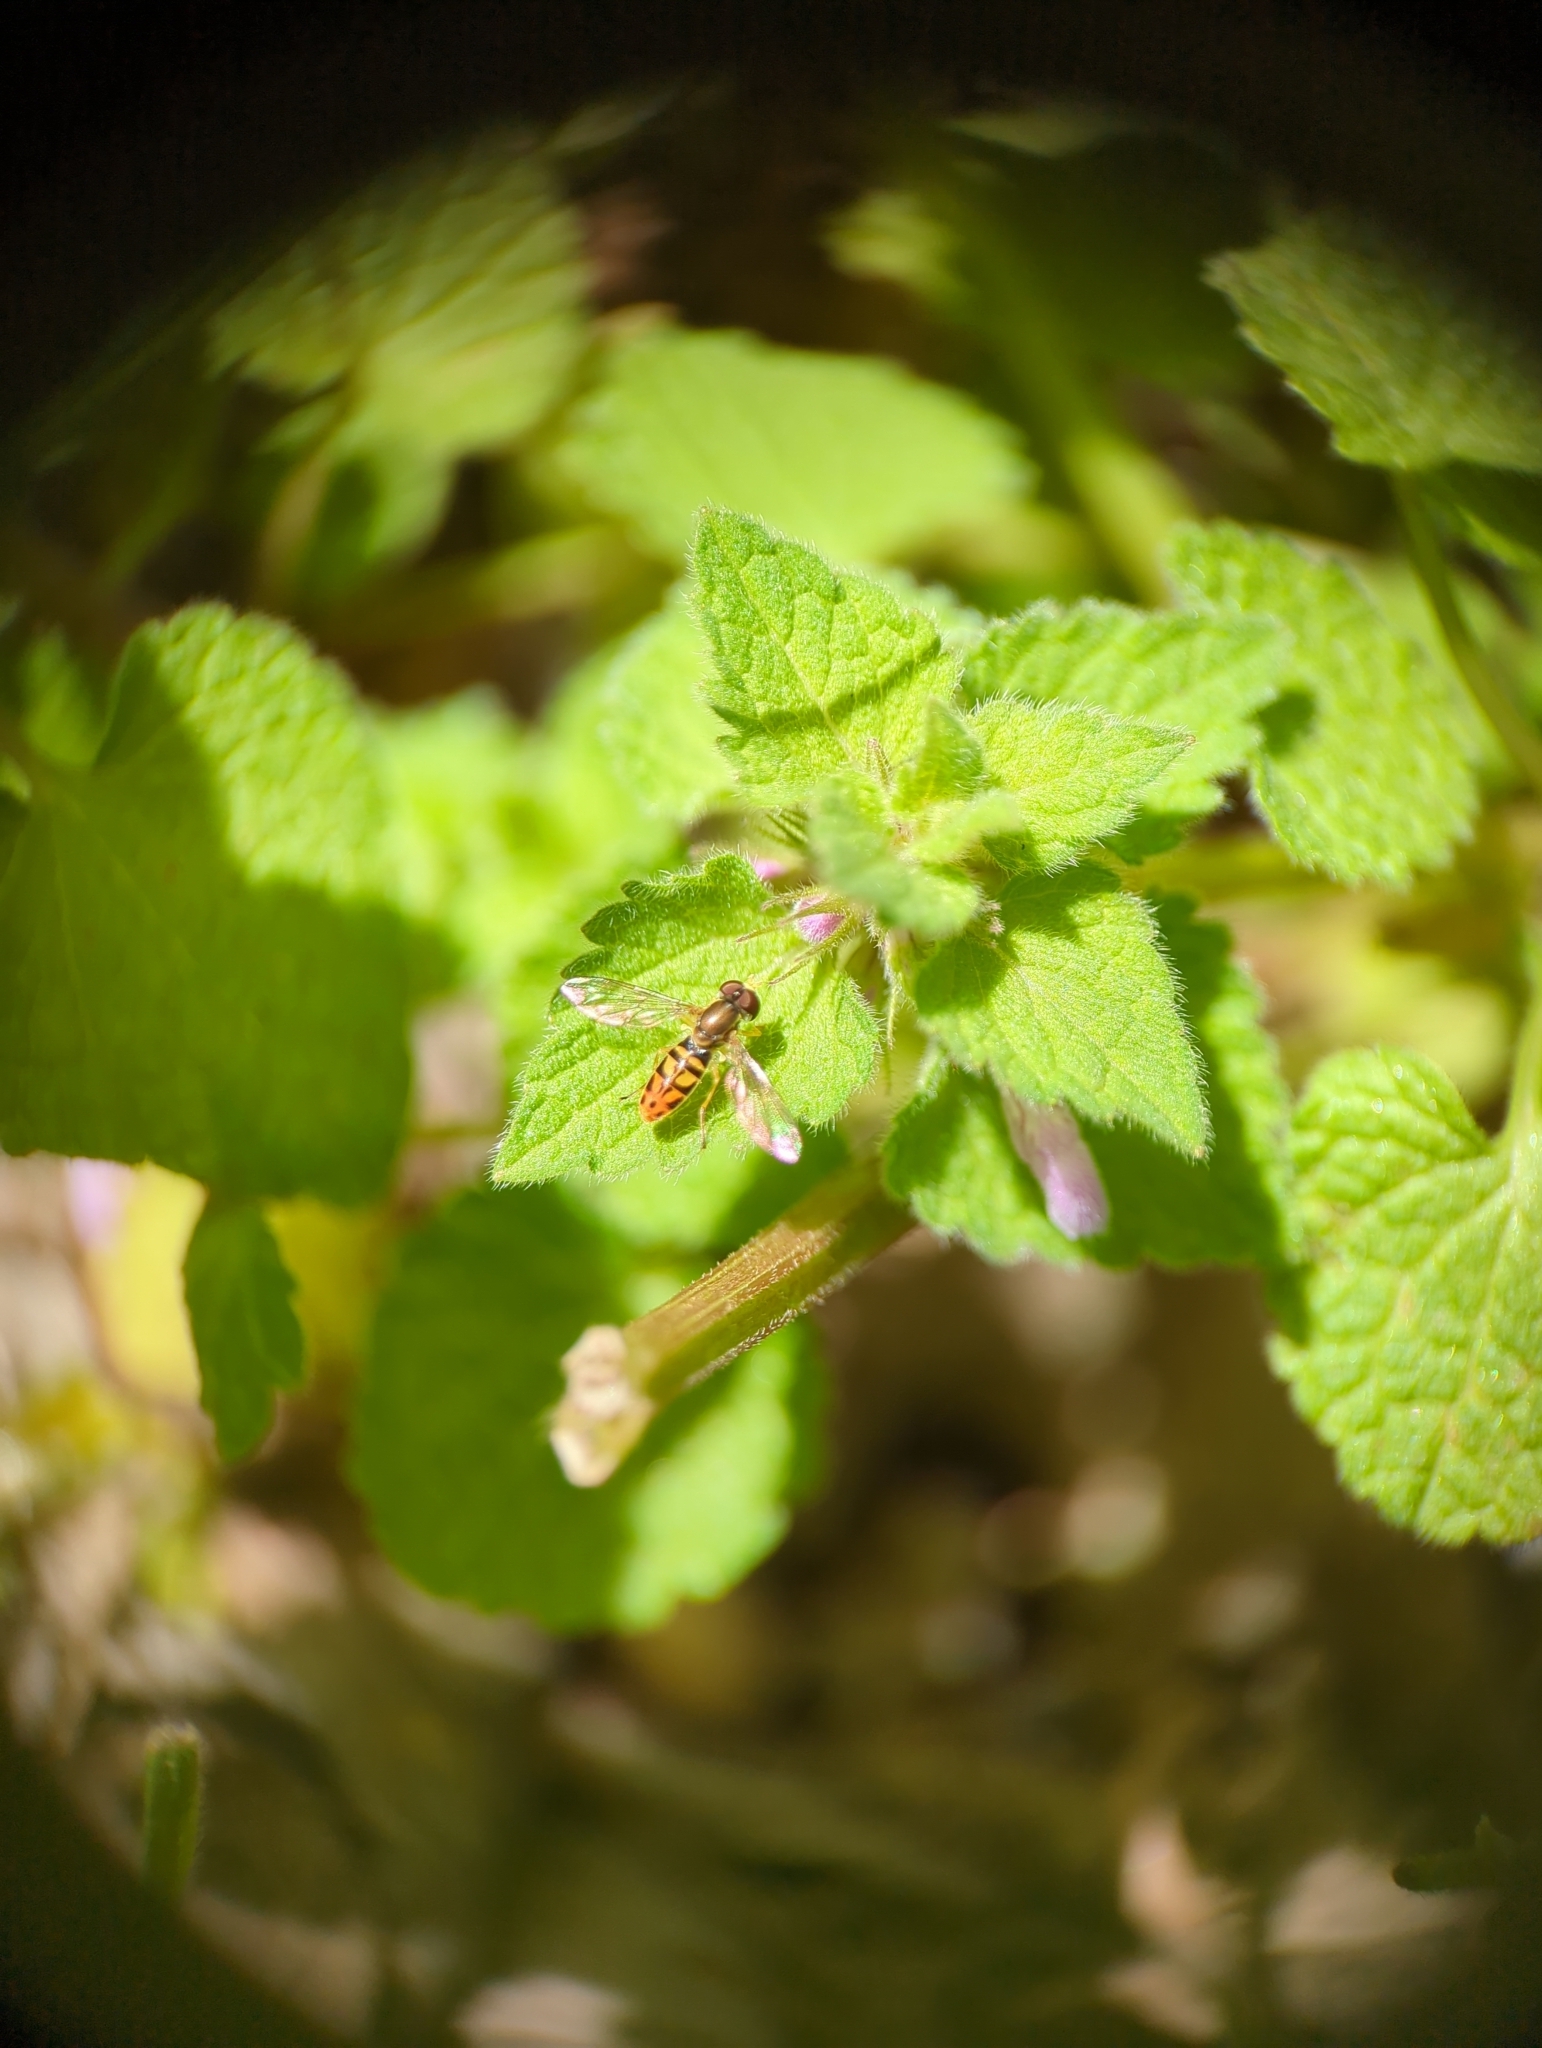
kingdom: Animalia
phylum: Arthropoda
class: Insecta
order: Diptera
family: Syrphidae
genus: Toxomerus
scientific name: Toxomerus marginatus
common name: Syrphid fly
